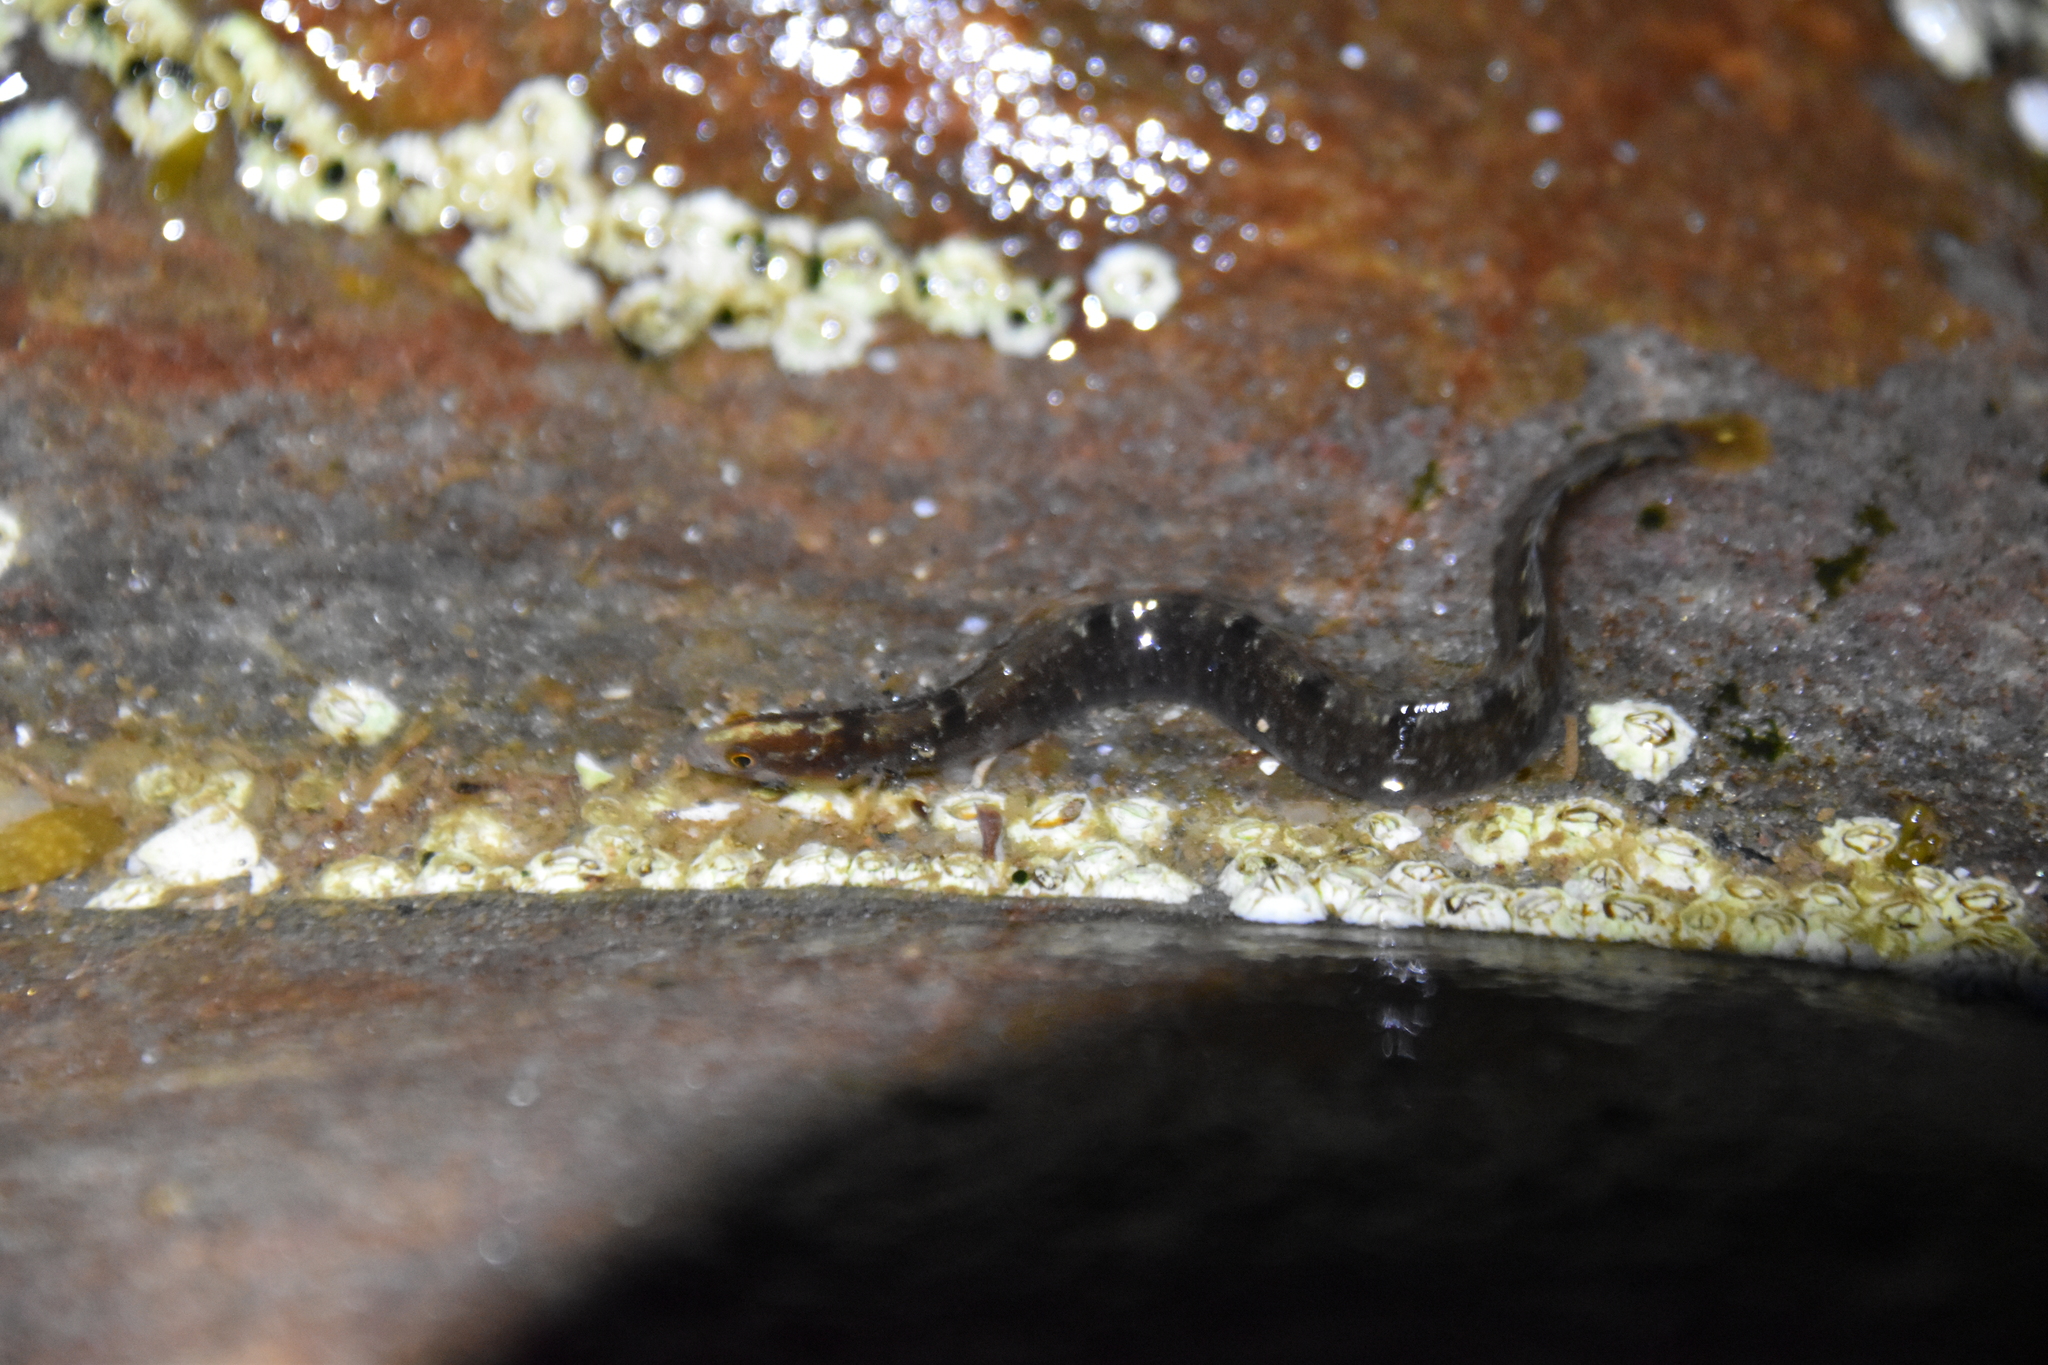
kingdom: Animalia
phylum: Chordata
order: Perciformes
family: Pholidae
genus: Pholis
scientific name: Pholis gunnellus
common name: Butterfish
